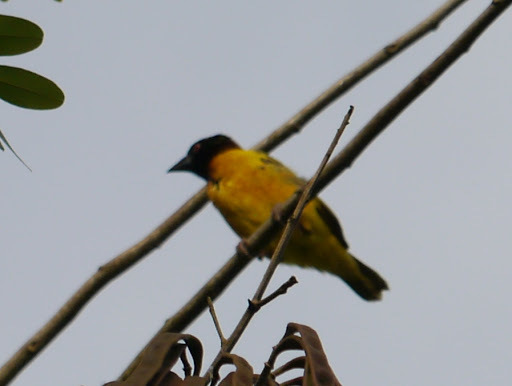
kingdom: Animalia
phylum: Chordata
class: Aves
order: Passeriformes
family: Ploceidae
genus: Ploceus
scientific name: Ploceus cucullatus
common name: Village weaver
